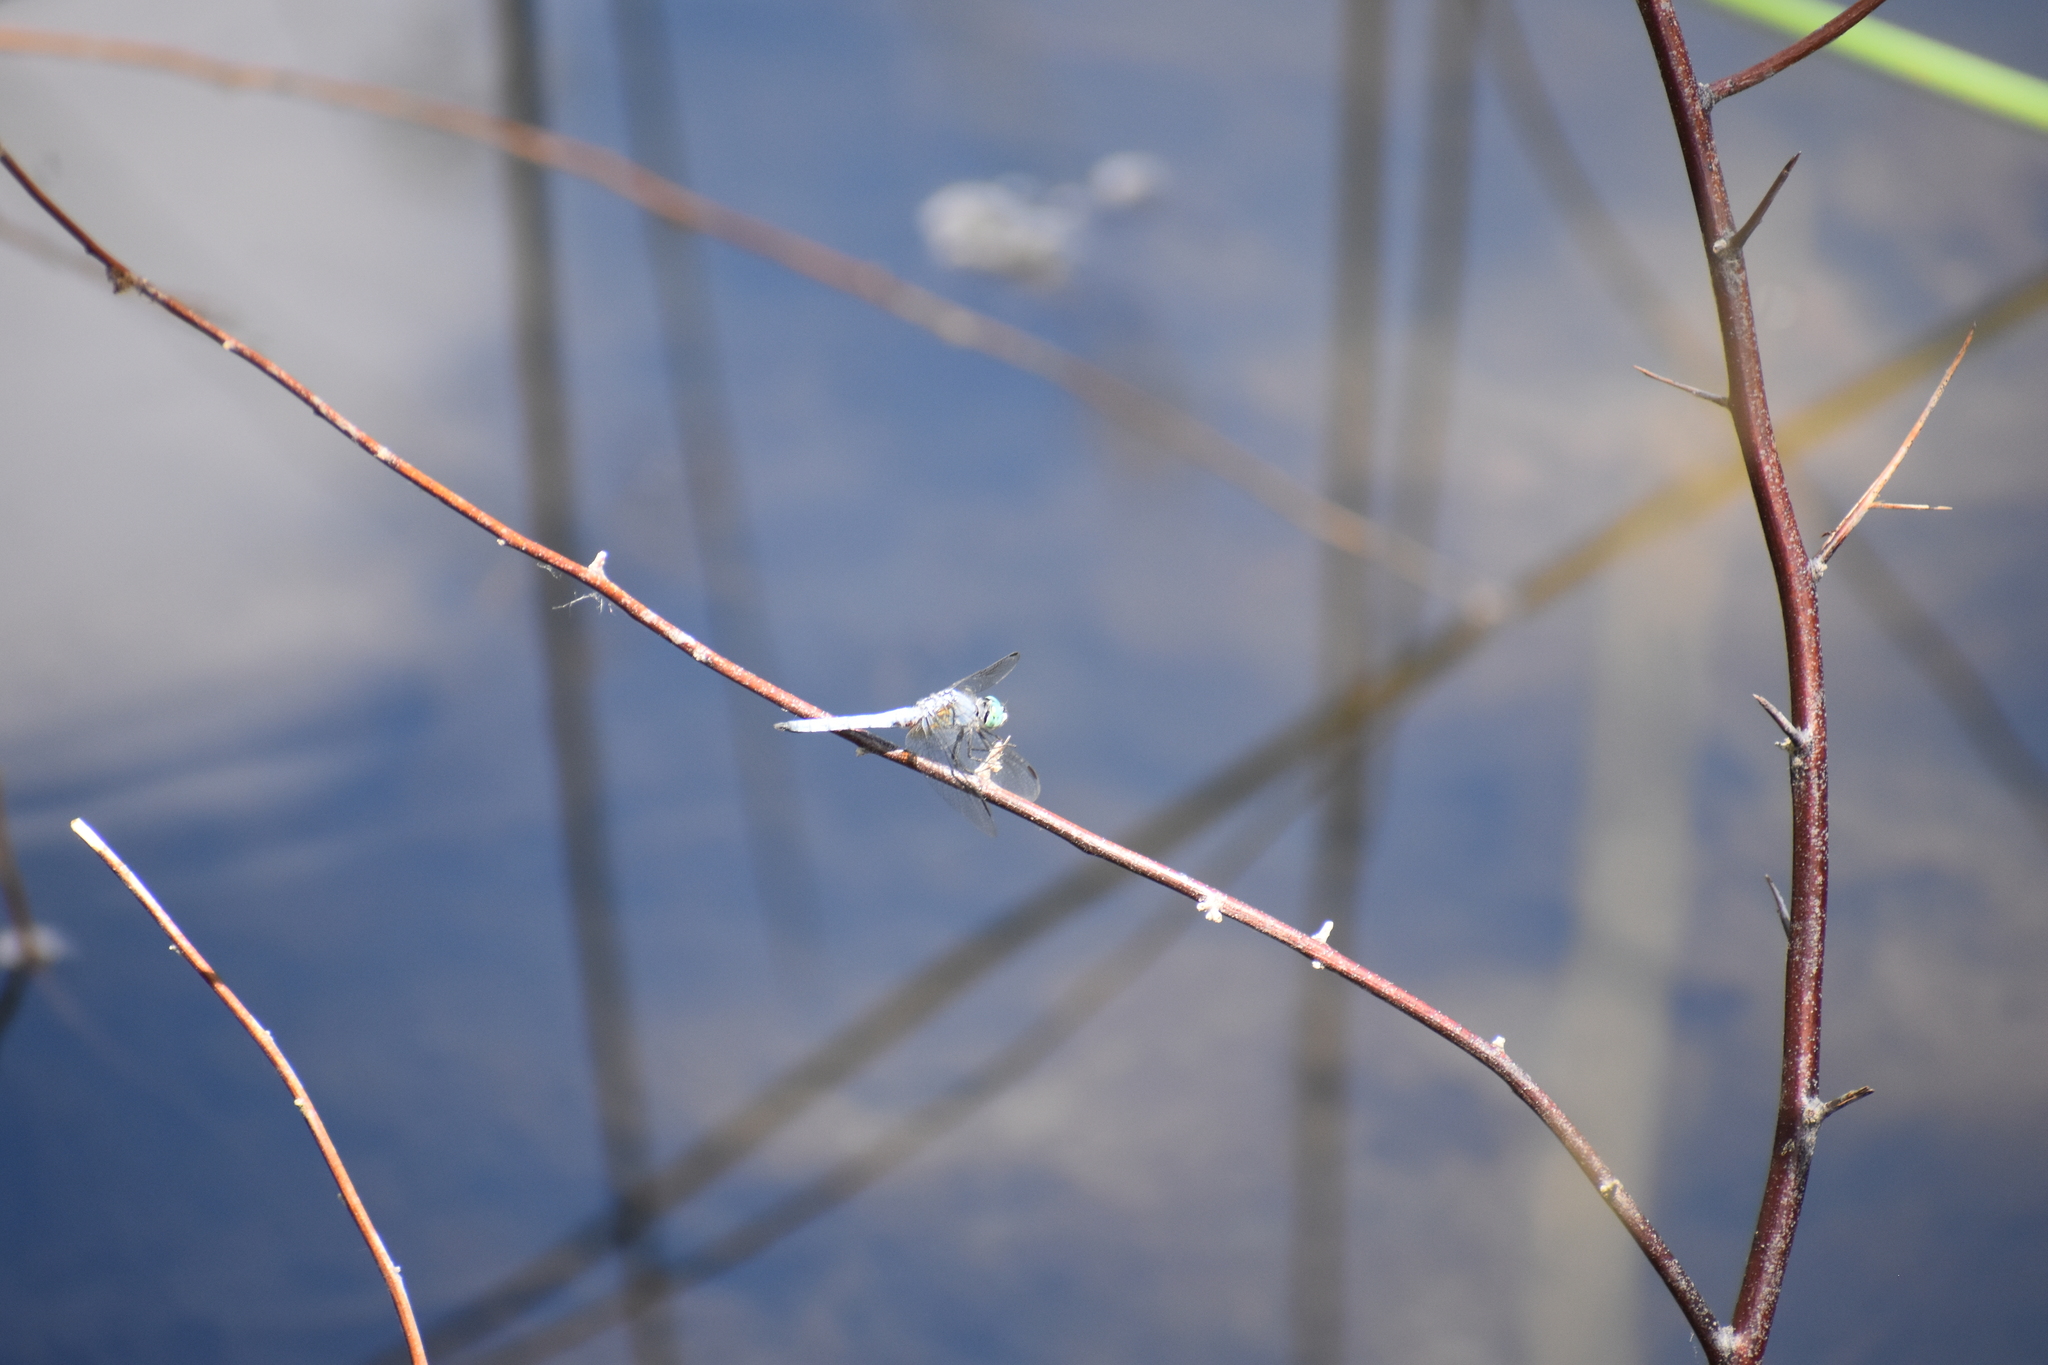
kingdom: Animalia
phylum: Arthropoda
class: Insecta
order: Odonata
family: Libellulidae
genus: Pachydiplax
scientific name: Pachydiplax longipennis
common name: Blue dasher
